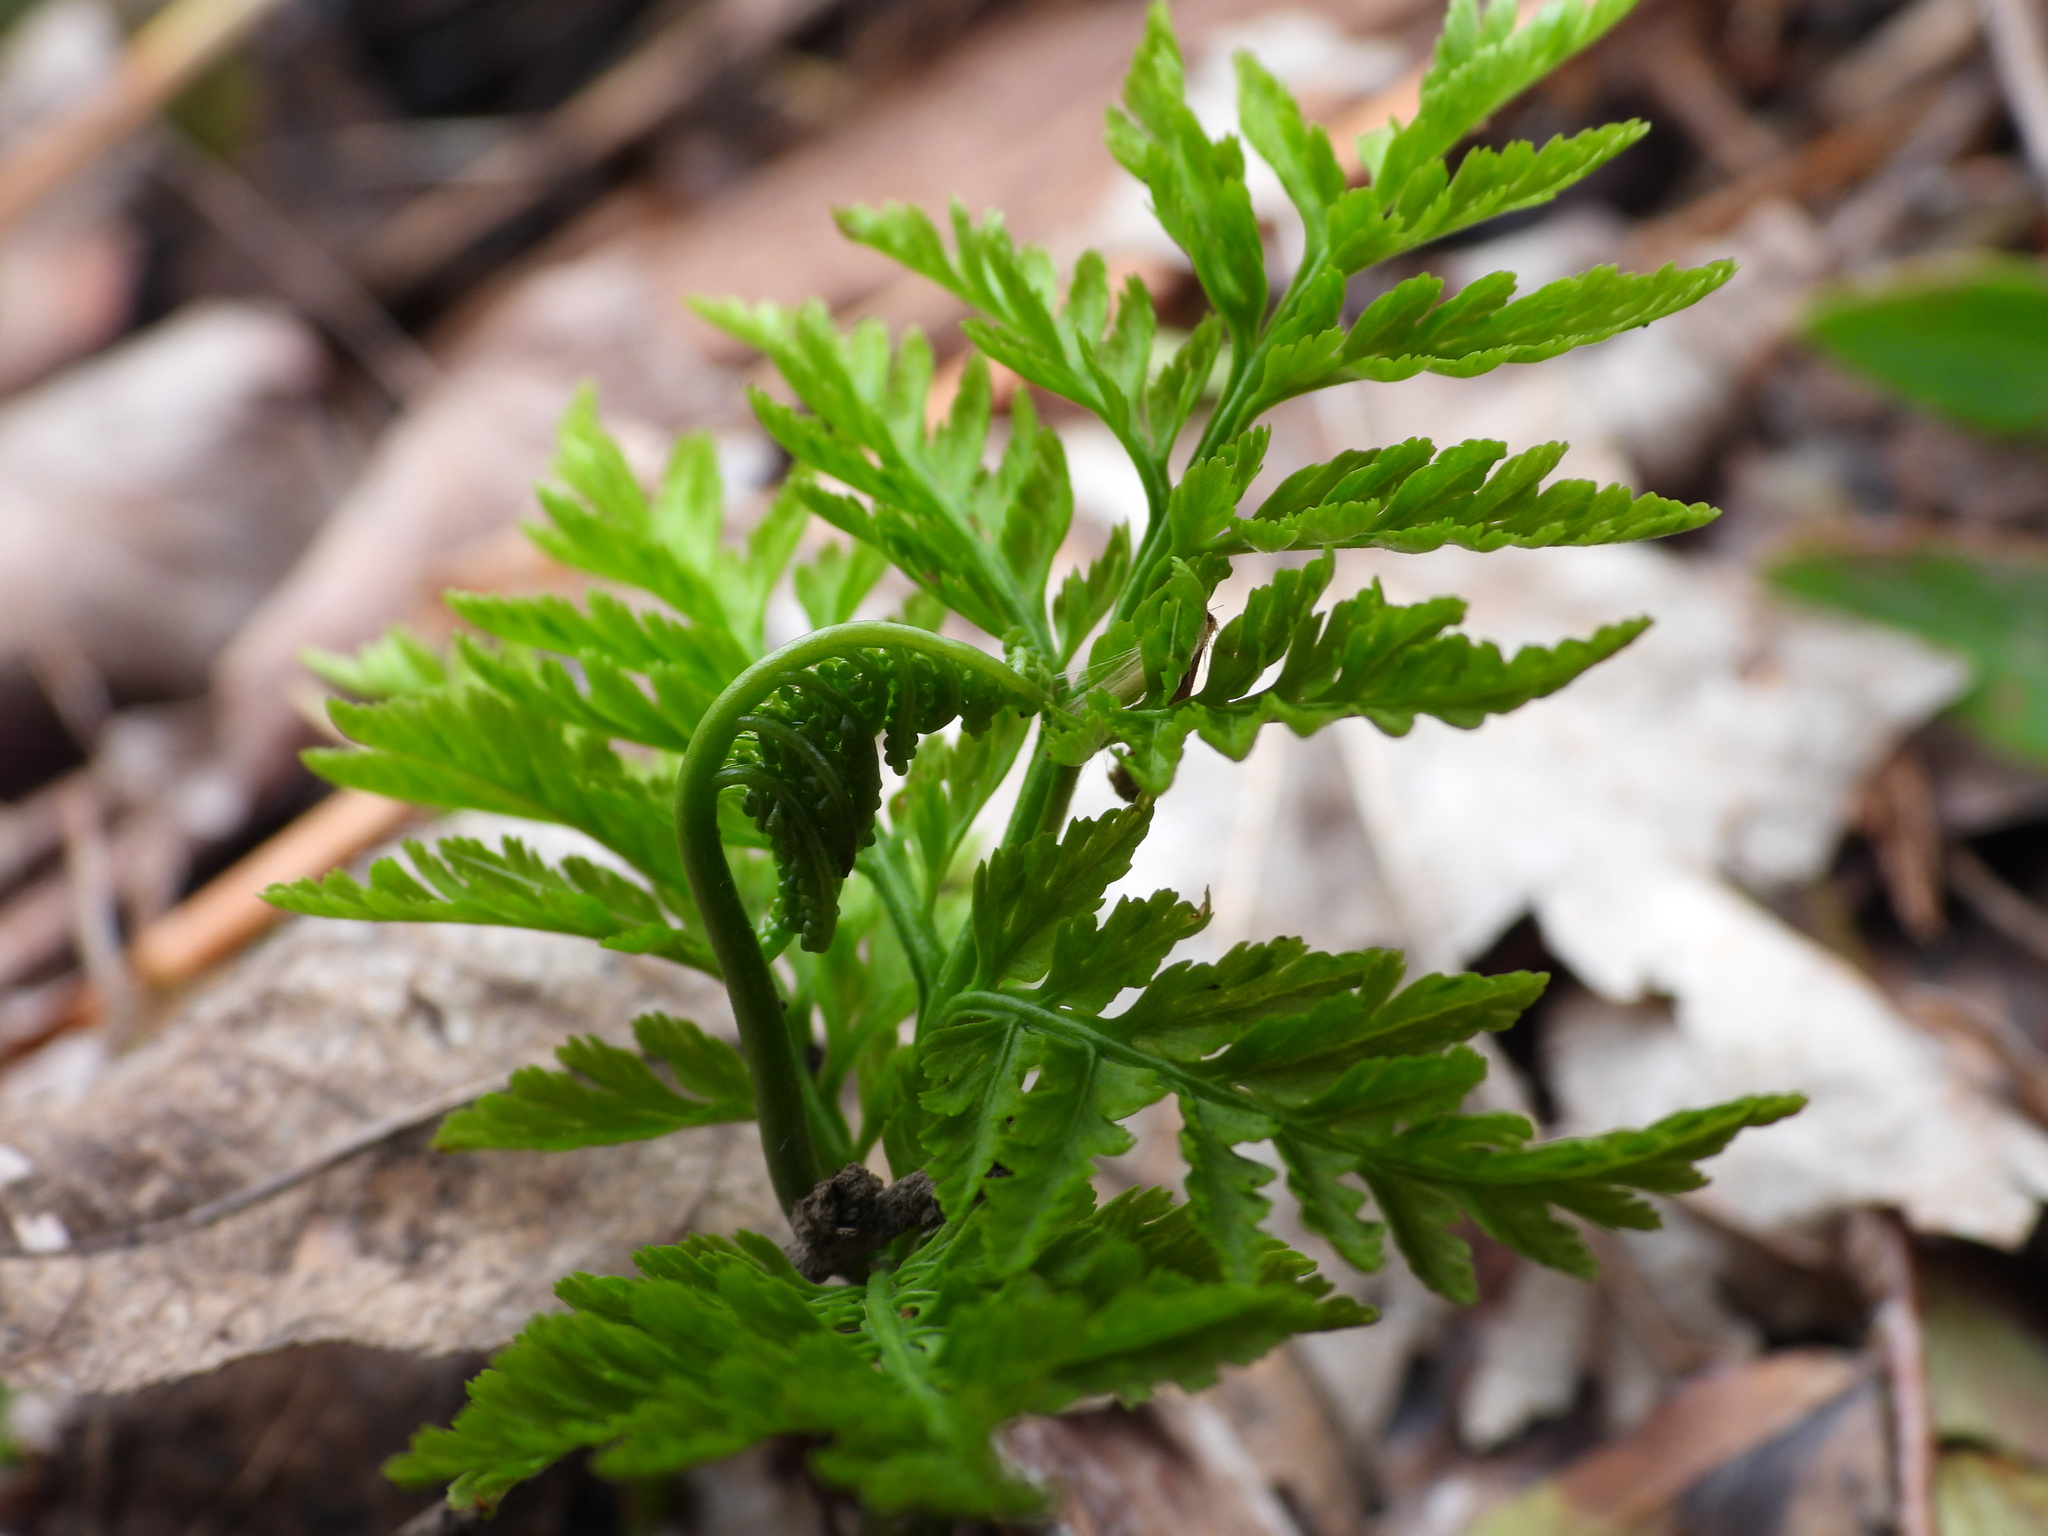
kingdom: Plantae
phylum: Tracheophyta
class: Polypodiopsida
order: Ophioglossales
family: Ophioglossaceae
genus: Botrypus
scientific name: Botrypus virginianus
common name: Common grapefern
